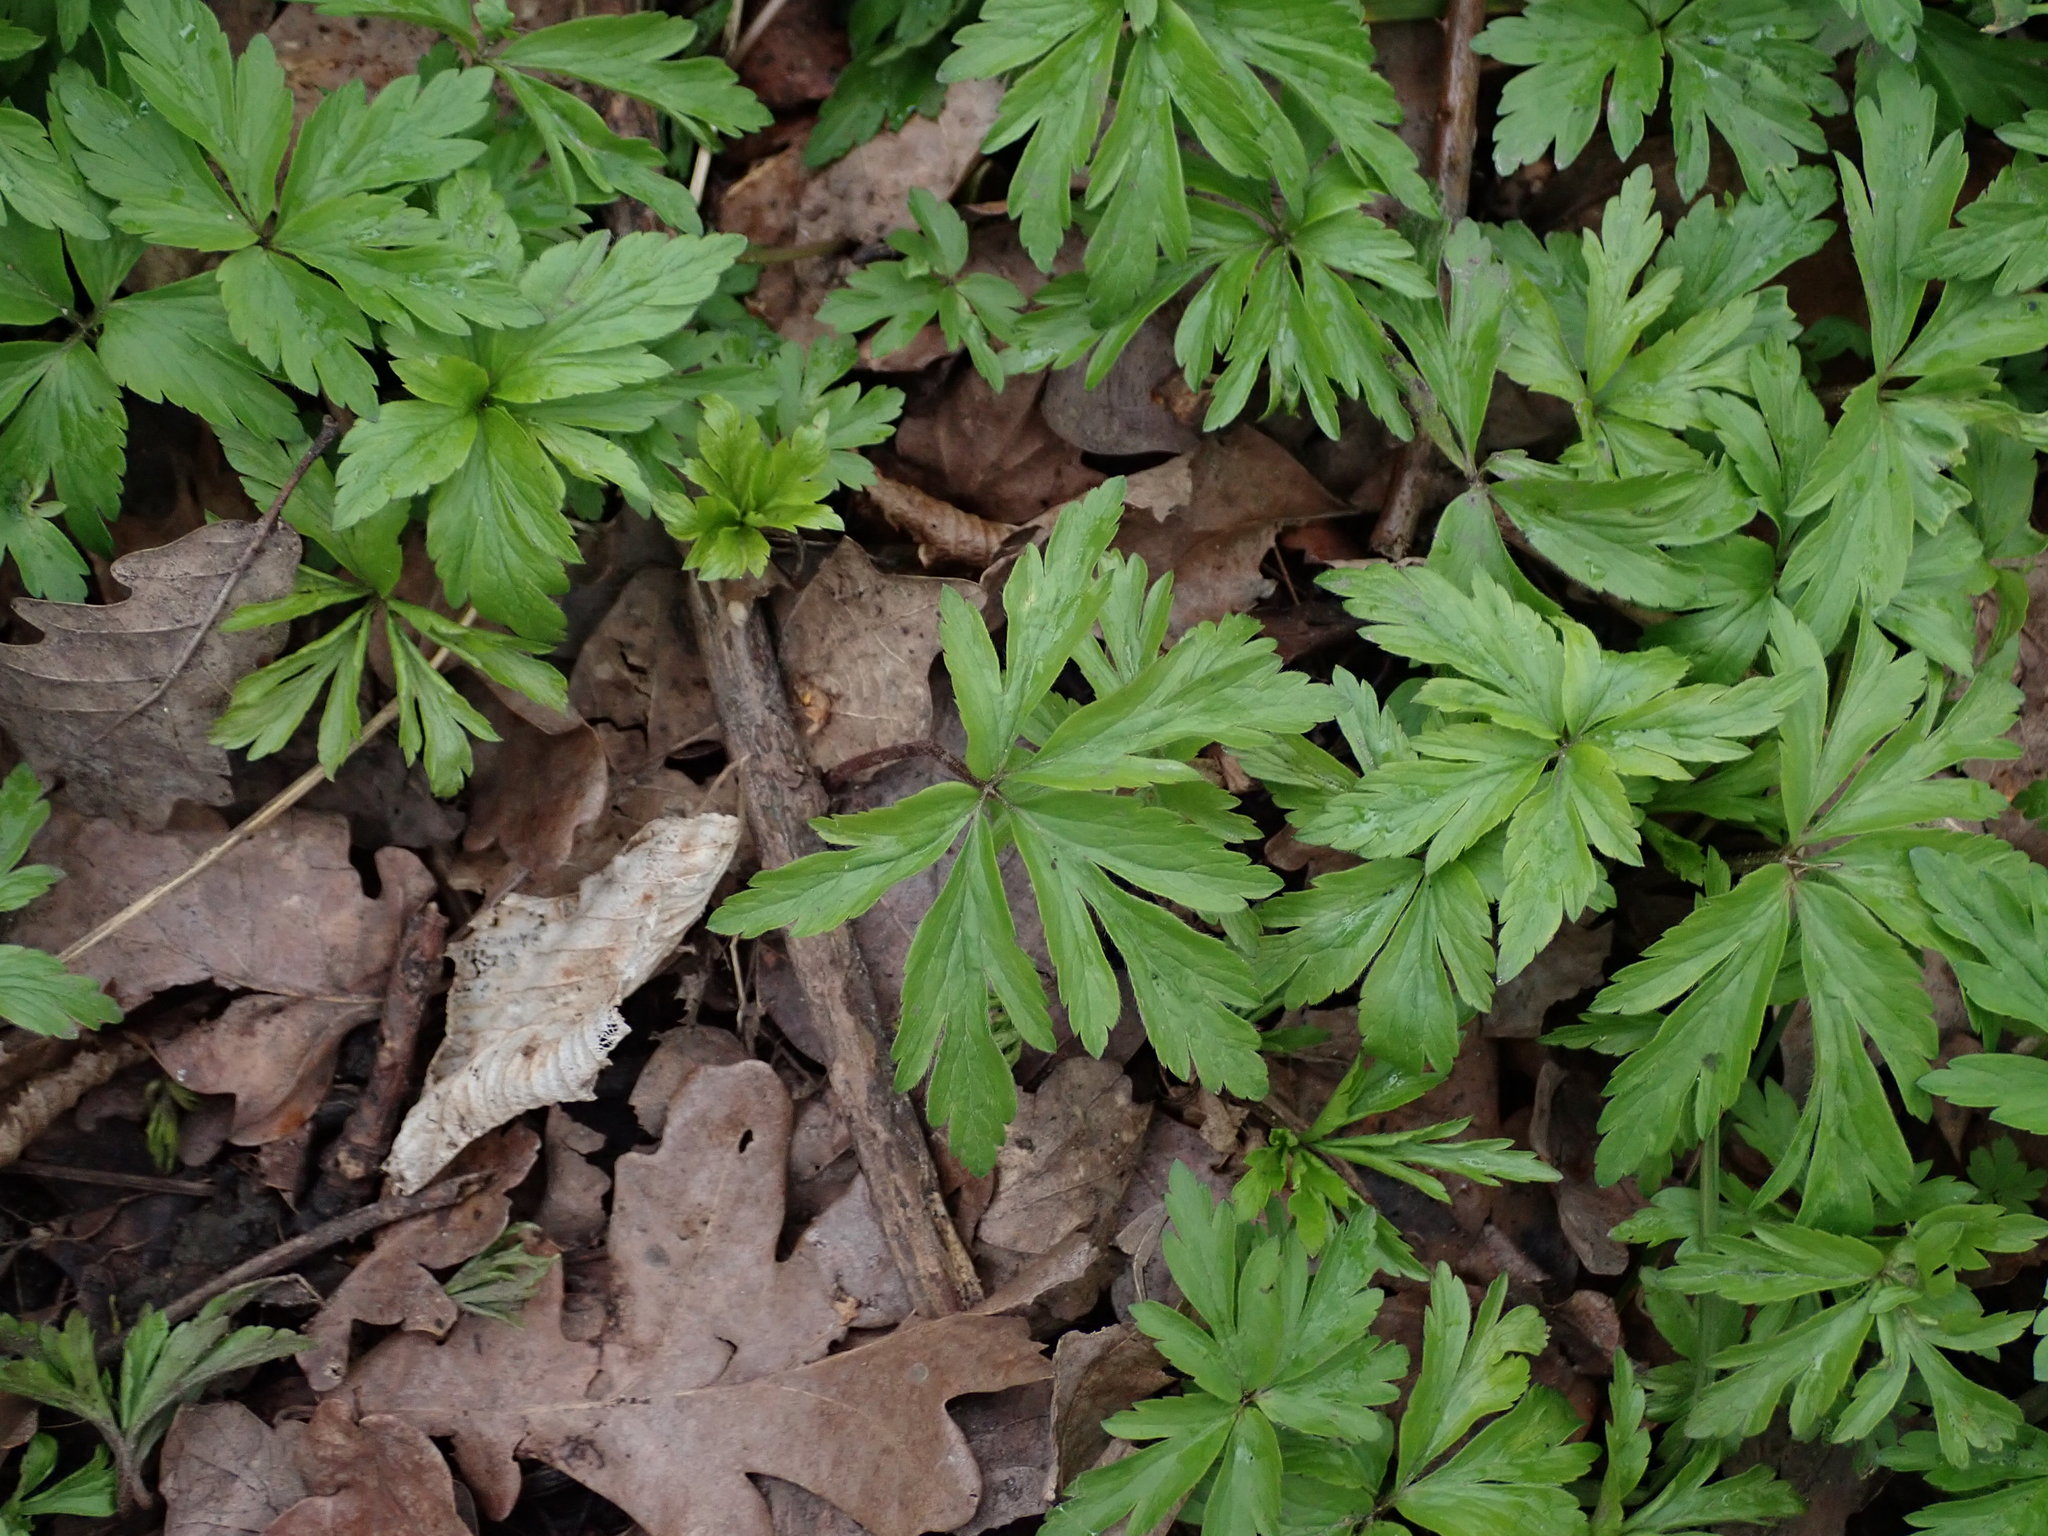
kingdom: Plantae
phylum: Tracheophyta
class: Magnoliopsida
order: Ranunculales
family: Ranunculaceae
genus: Anemone
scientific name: Anemone nemorosa
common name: Wood anemone
